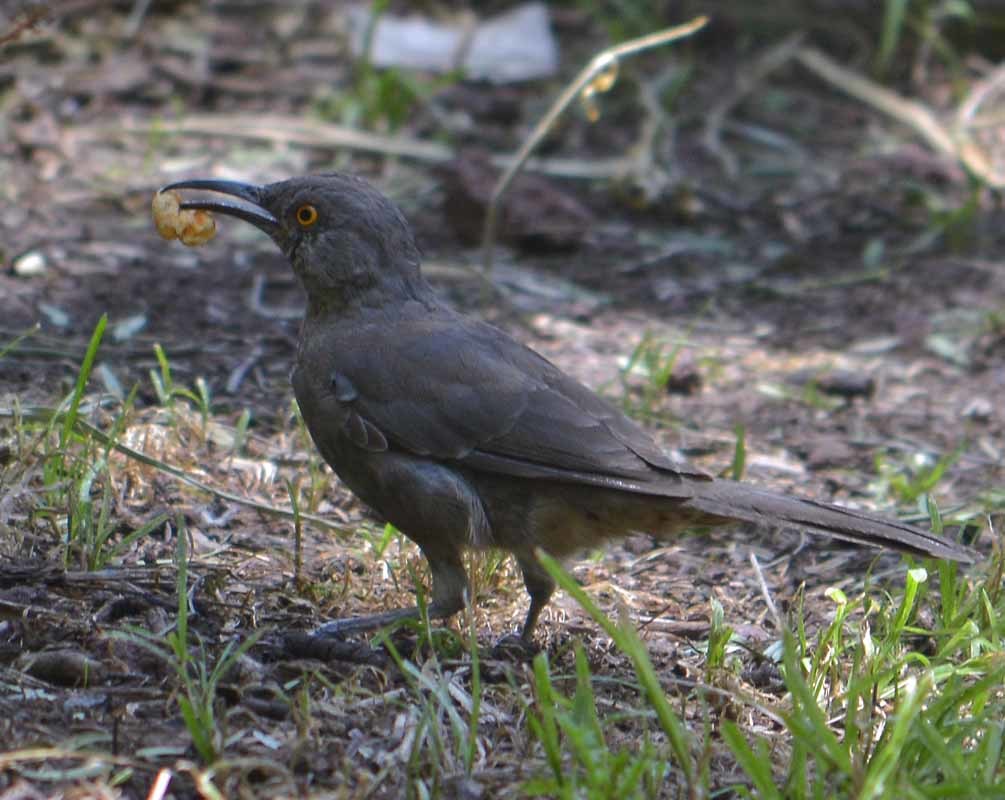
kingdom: Animalia
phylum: Chordata
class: Aves
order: Passeriformes
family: Mimidae
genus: Toxostoma
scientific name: Toxostoma curvirostre
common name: Curve-billed thrasher
